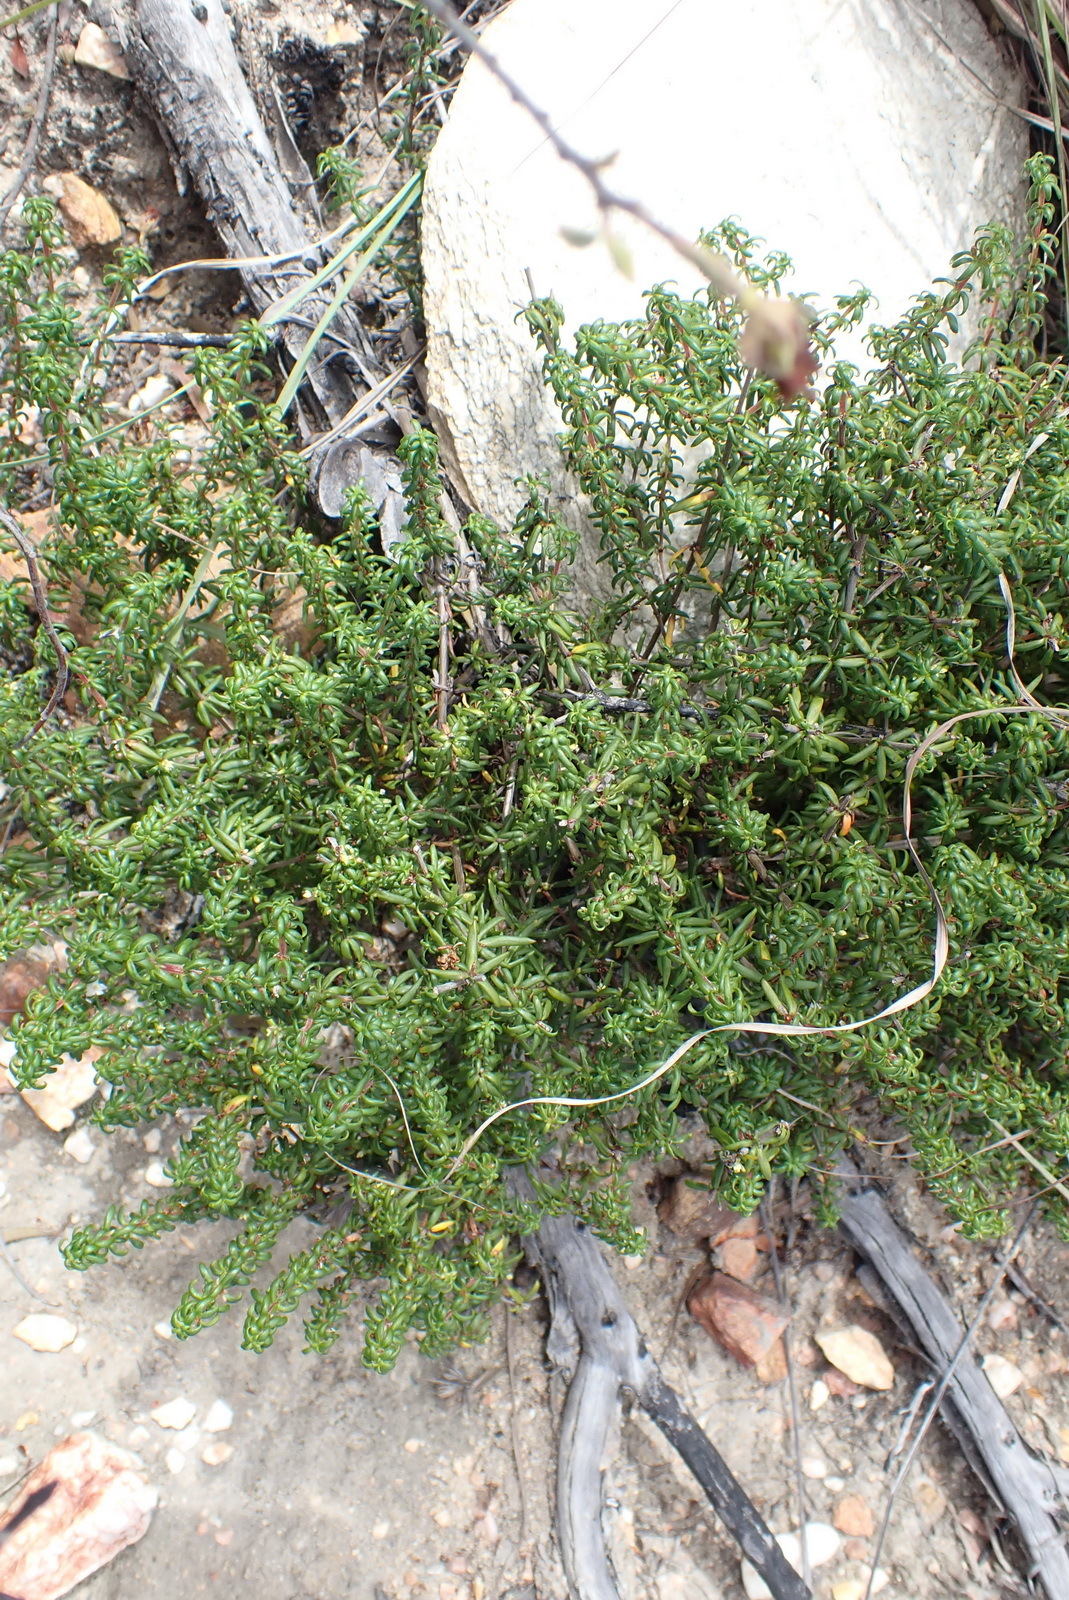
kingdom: Plantae
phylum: Tracheophyta
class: Magnoliopsida
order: Gentianales
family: Rubiaceae
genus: Anthospermum
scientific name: Anthospermum galioides
